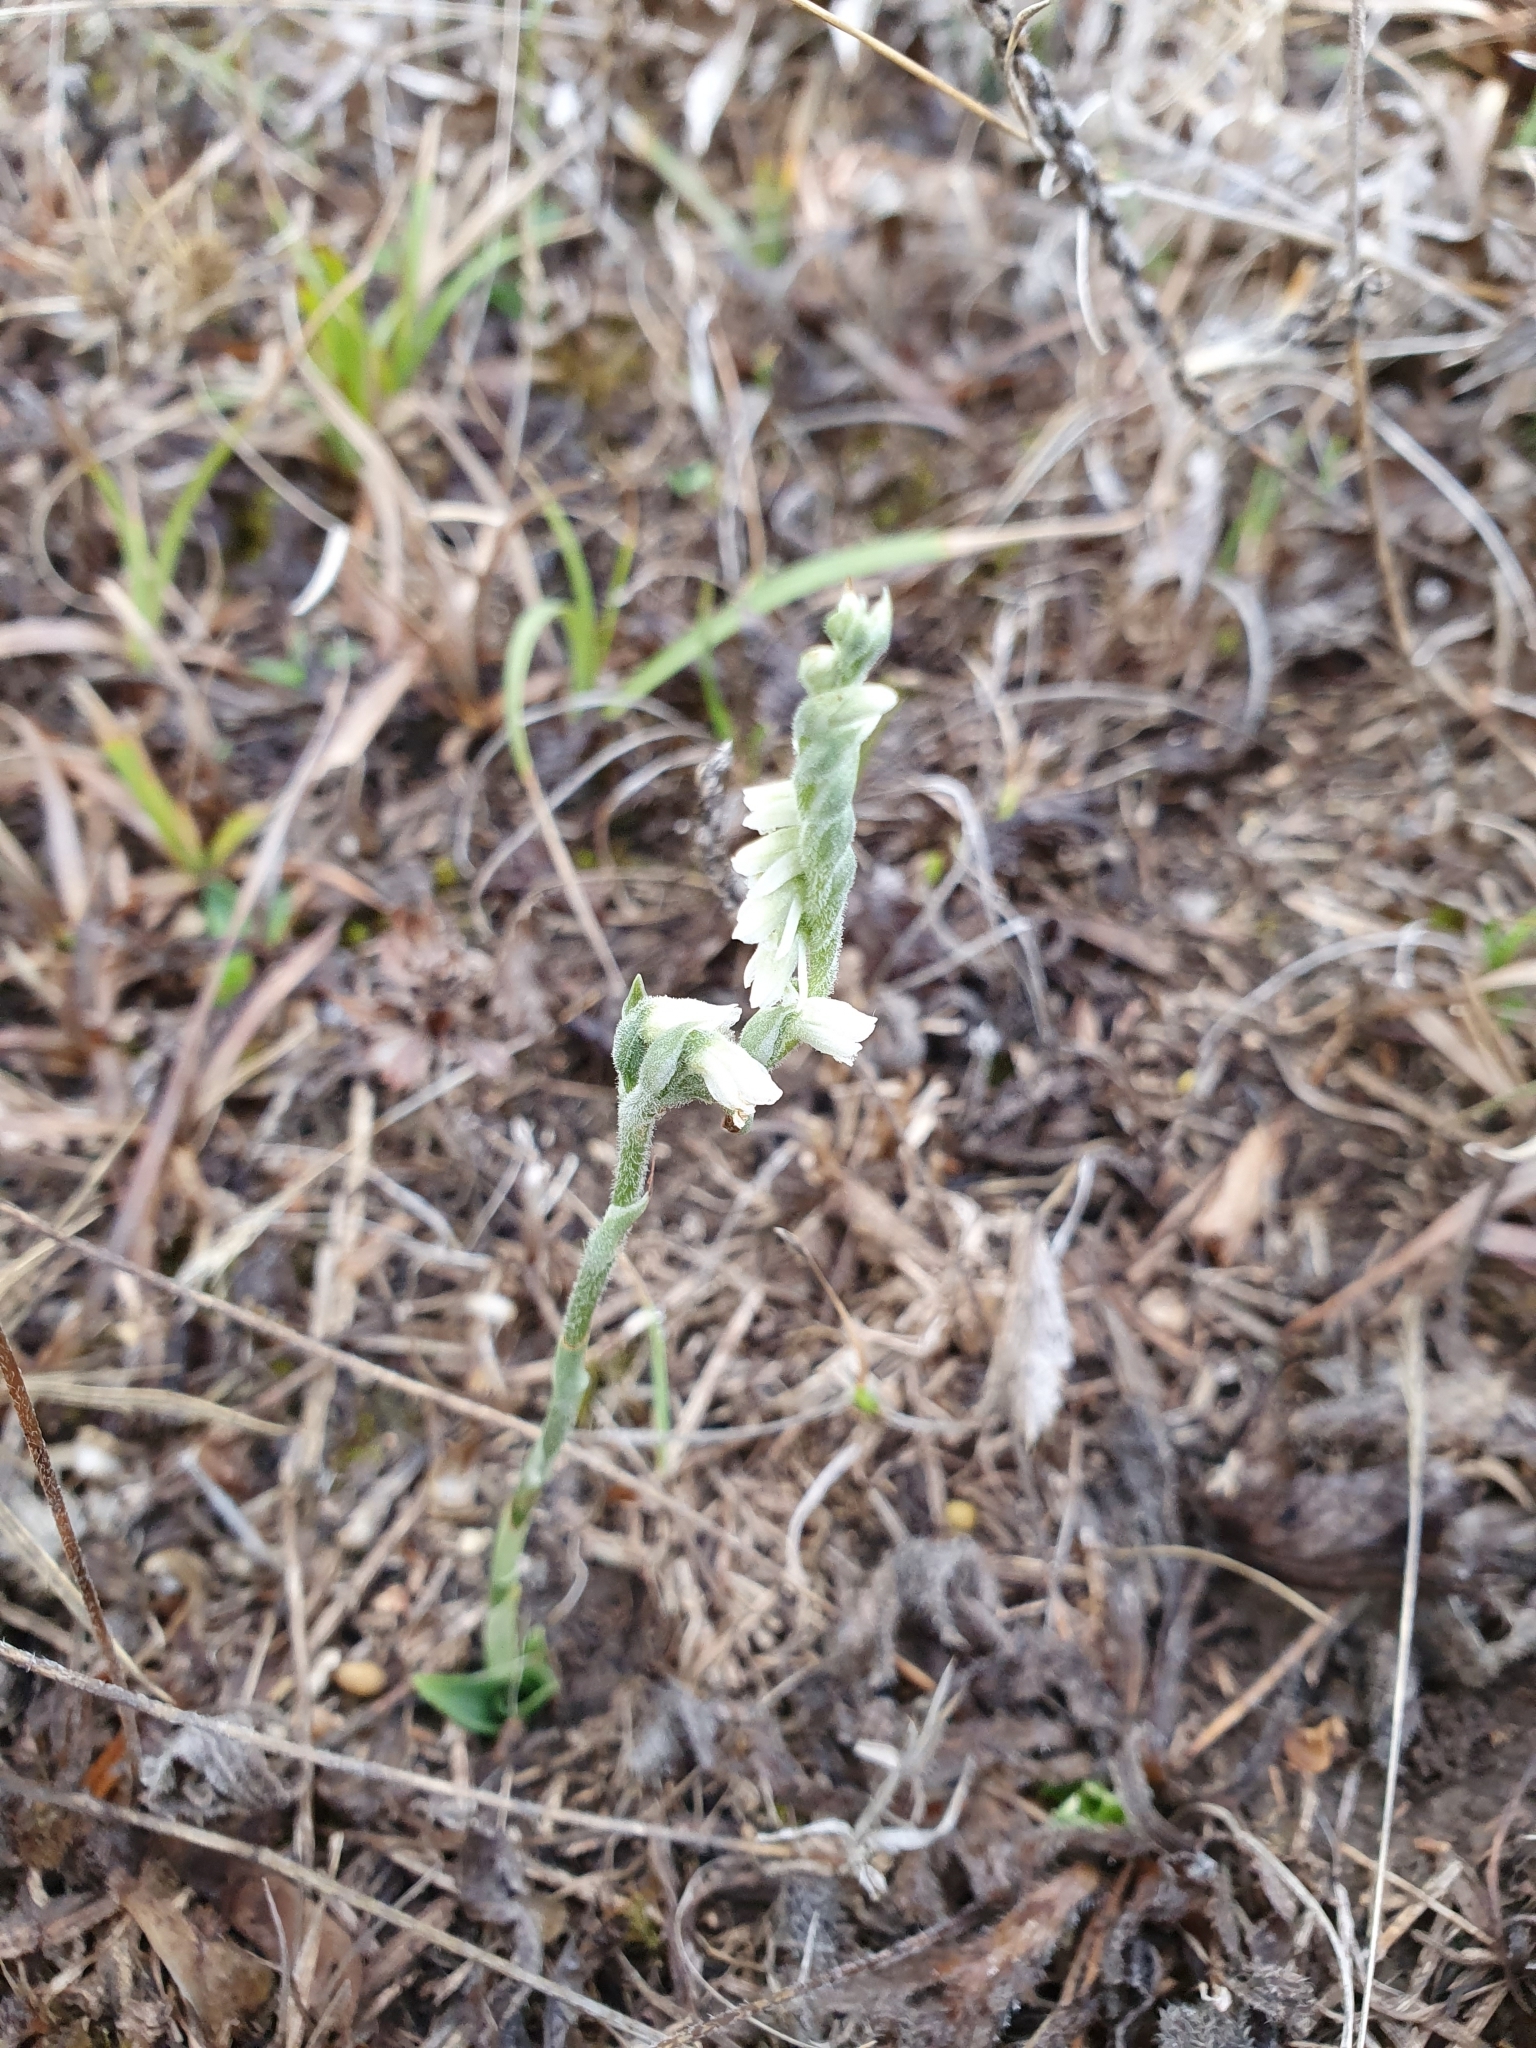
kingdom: Plantae
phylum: Tracheophyta
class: Liliopsida
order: Asparagales
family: Orchidaceae
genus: Spiranthes
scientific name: Spiranthes spiralis
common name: Autumn lady's-tresses
